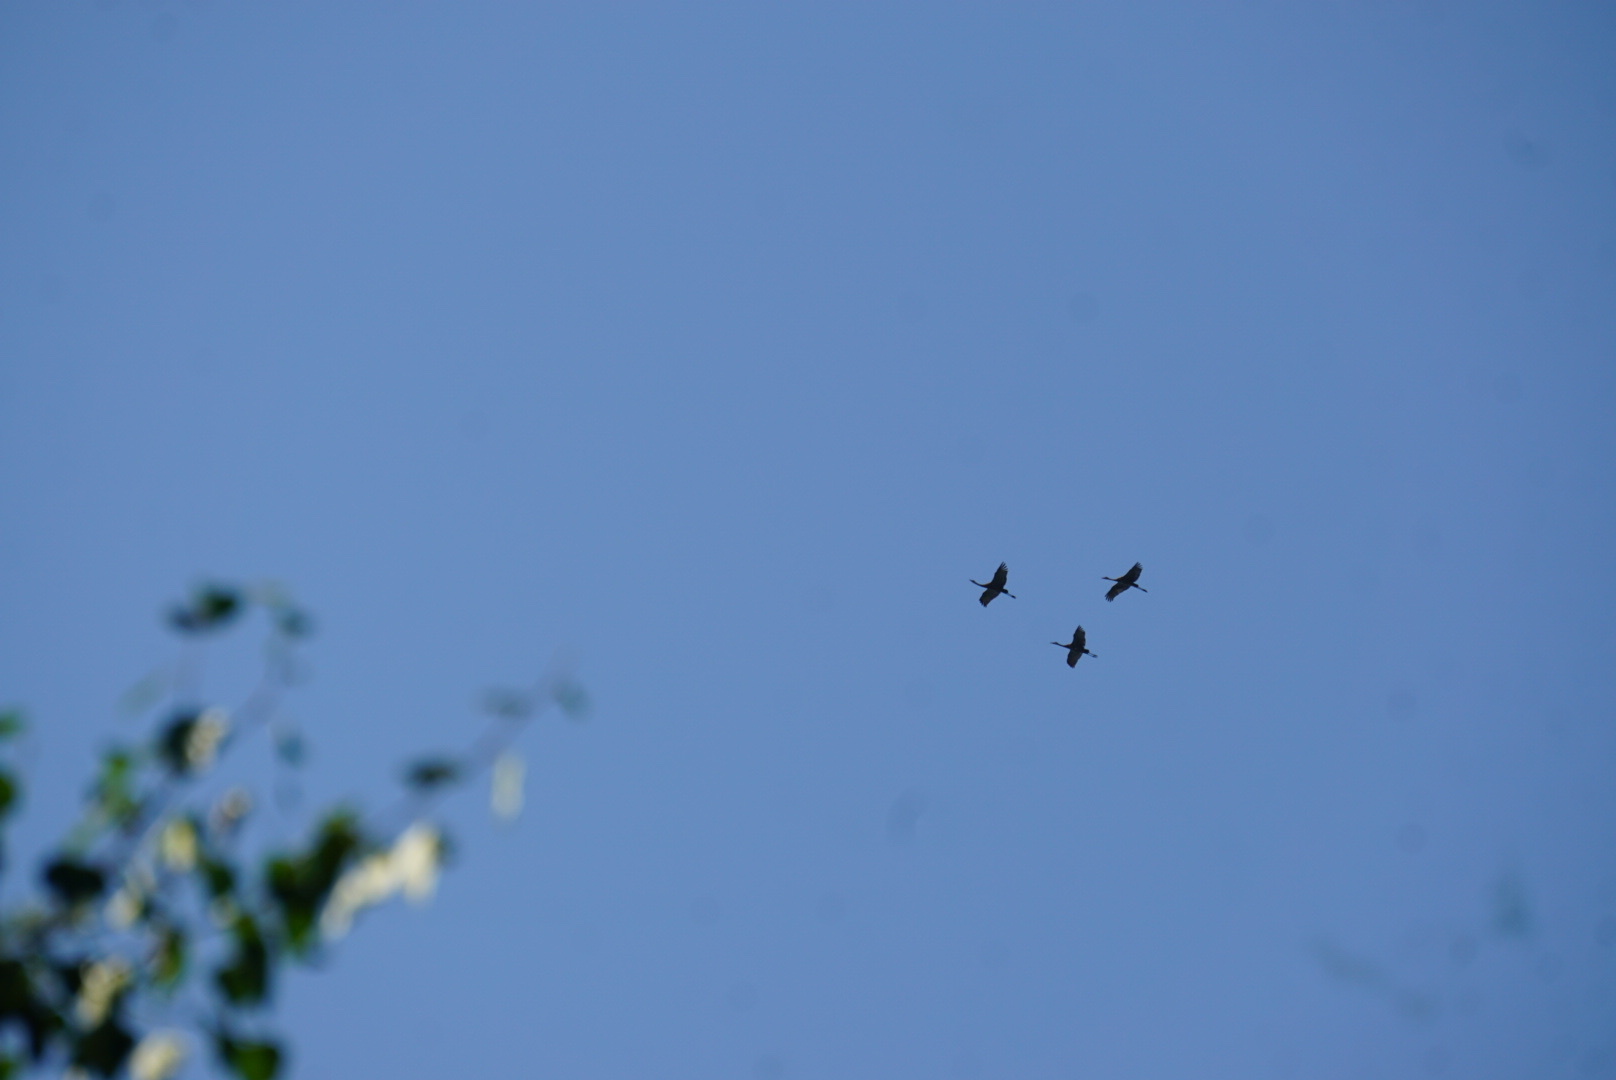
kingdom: Animalia
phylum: Chordata
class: Aves
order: Gruiformes
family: Gruidae
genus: Grus
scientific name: Grus canadensis
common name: Sandhill crane
